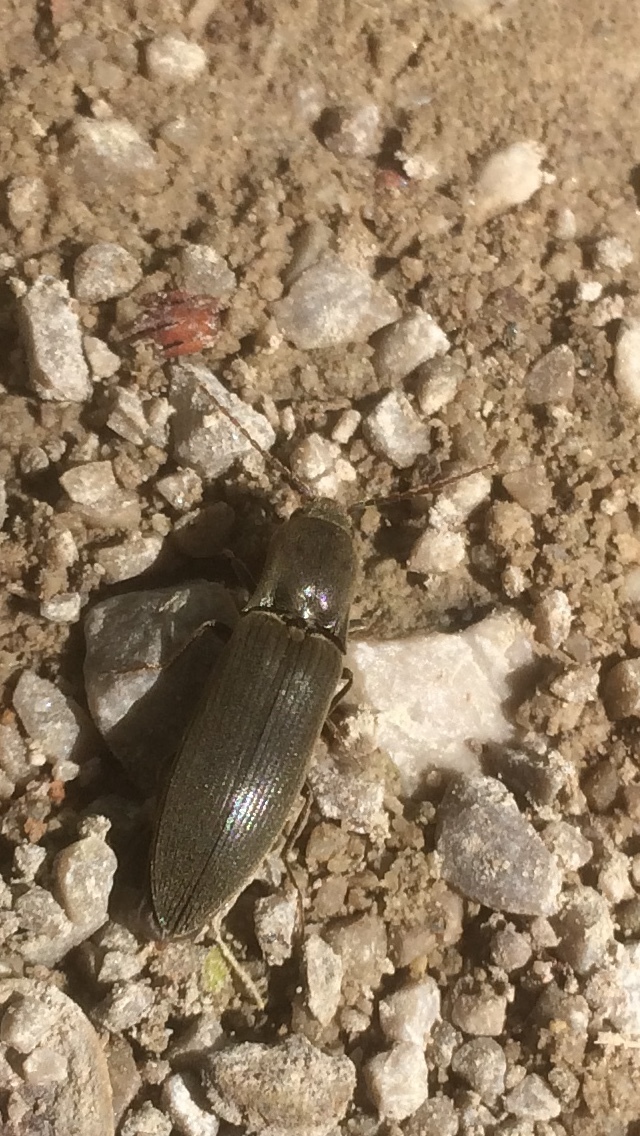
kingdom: Animalia
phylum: Arthropoda
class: Insecta
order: Coleoptera
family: Elateridae
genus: Agriotes
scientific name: Agriotes pilosellus
